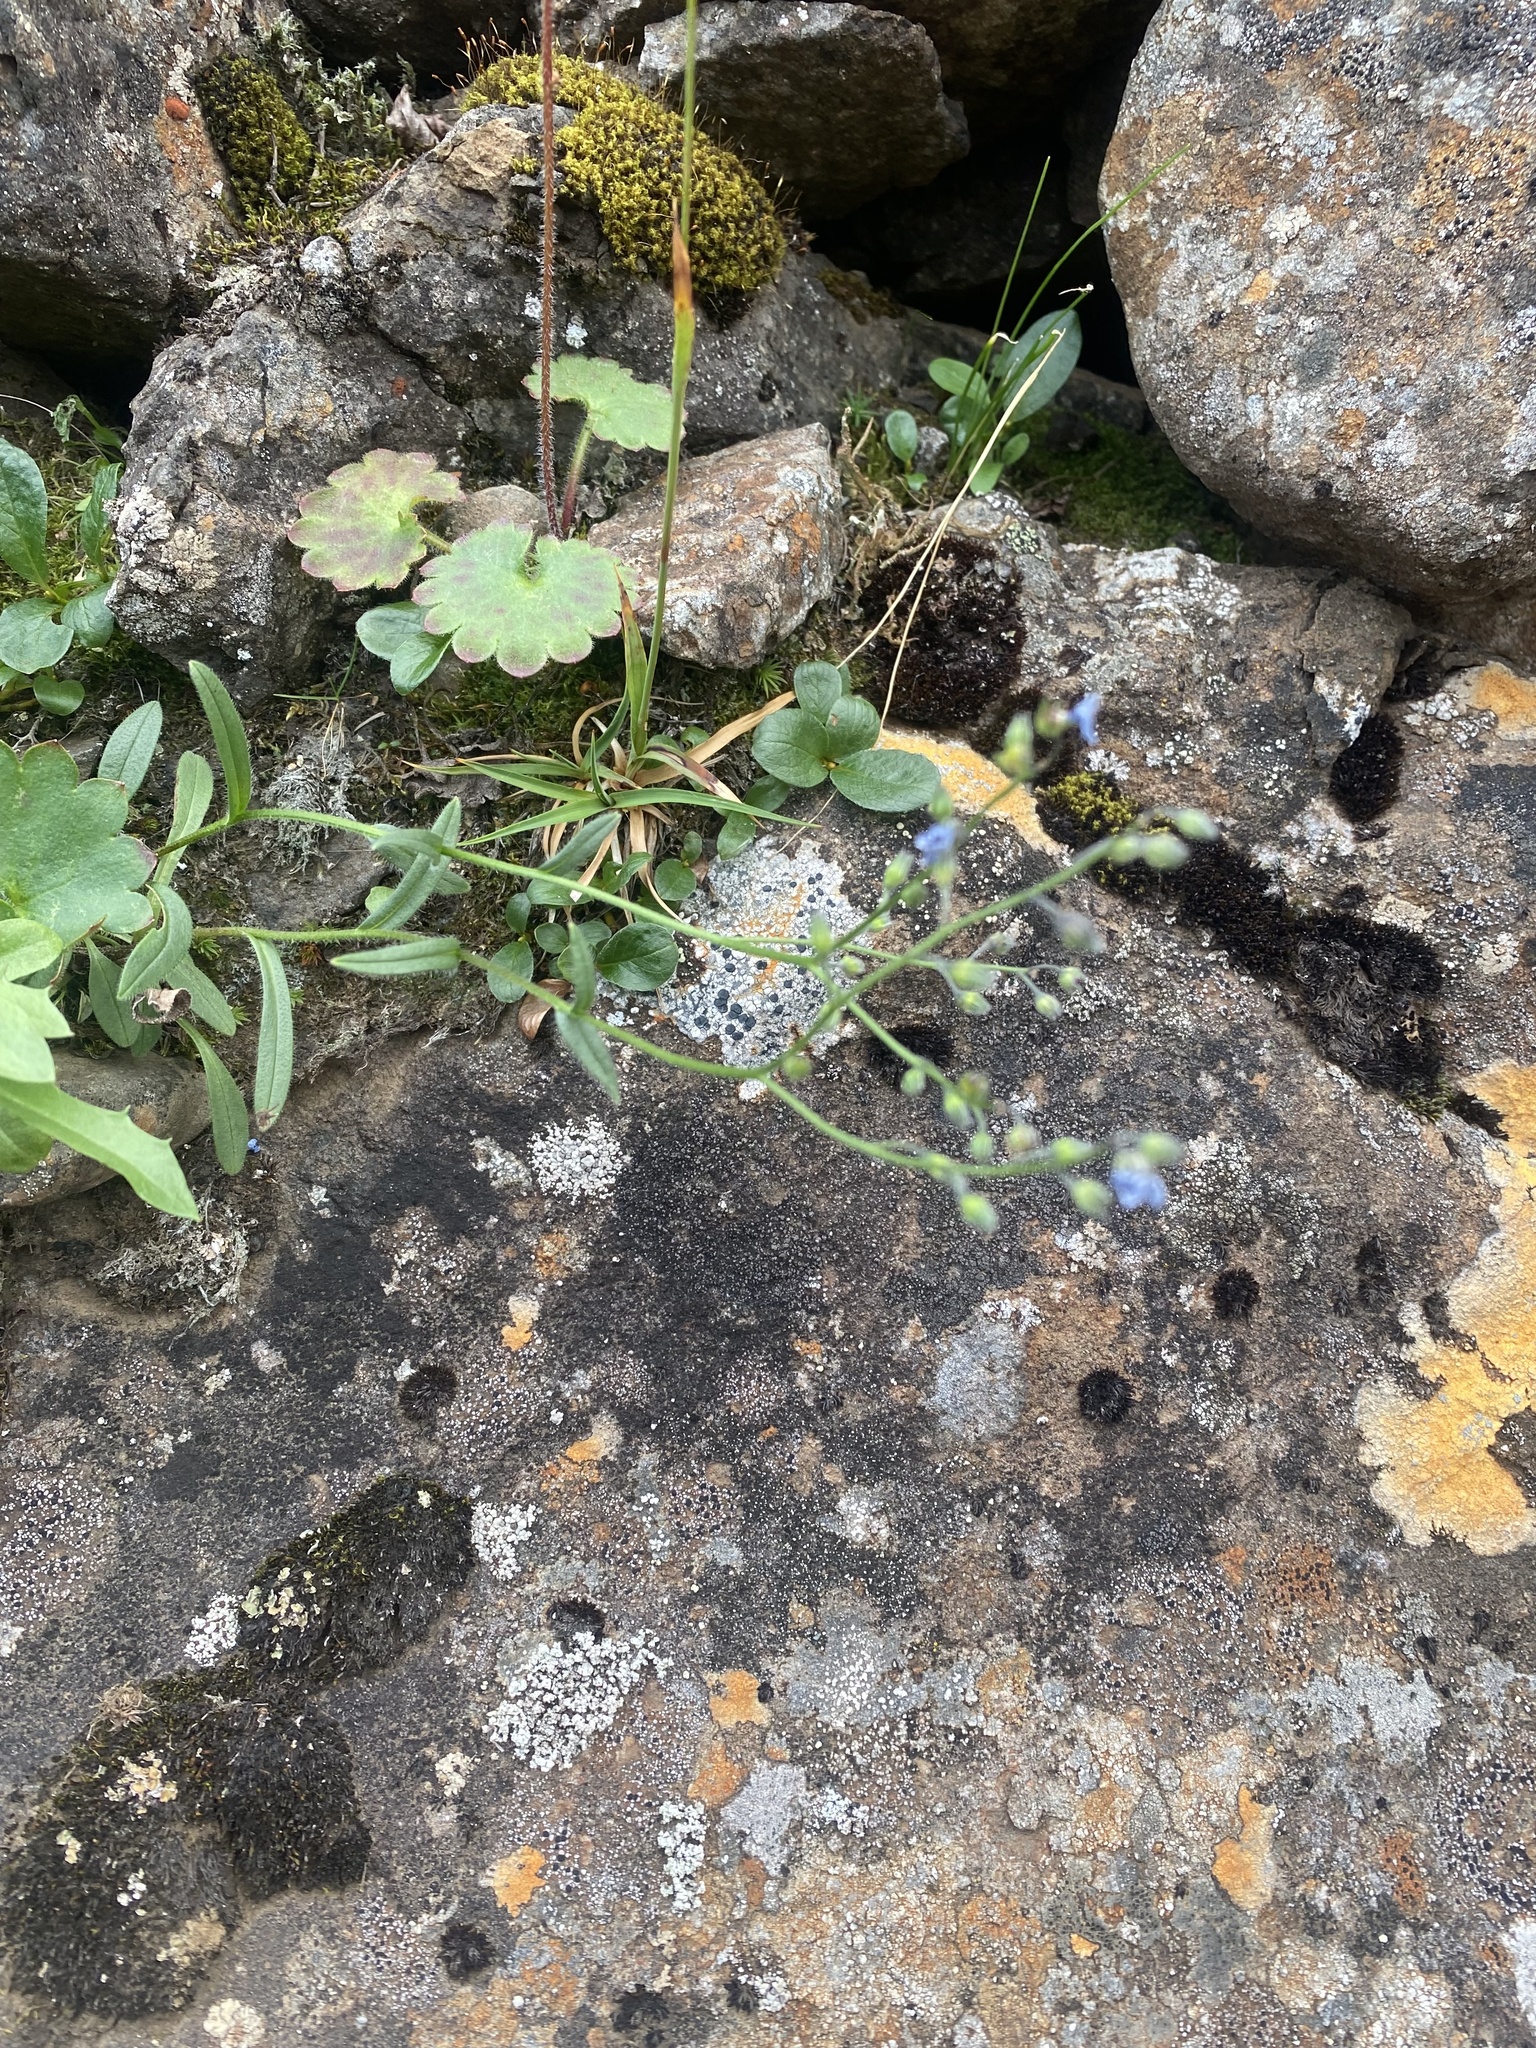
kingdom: Plantae
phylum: Tracheophyta
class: Magnoliopsida
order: Boraginales
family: Boraginaceae
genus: Myosotis
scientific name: Myosotis asiatica
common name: Asian forget-me-not
